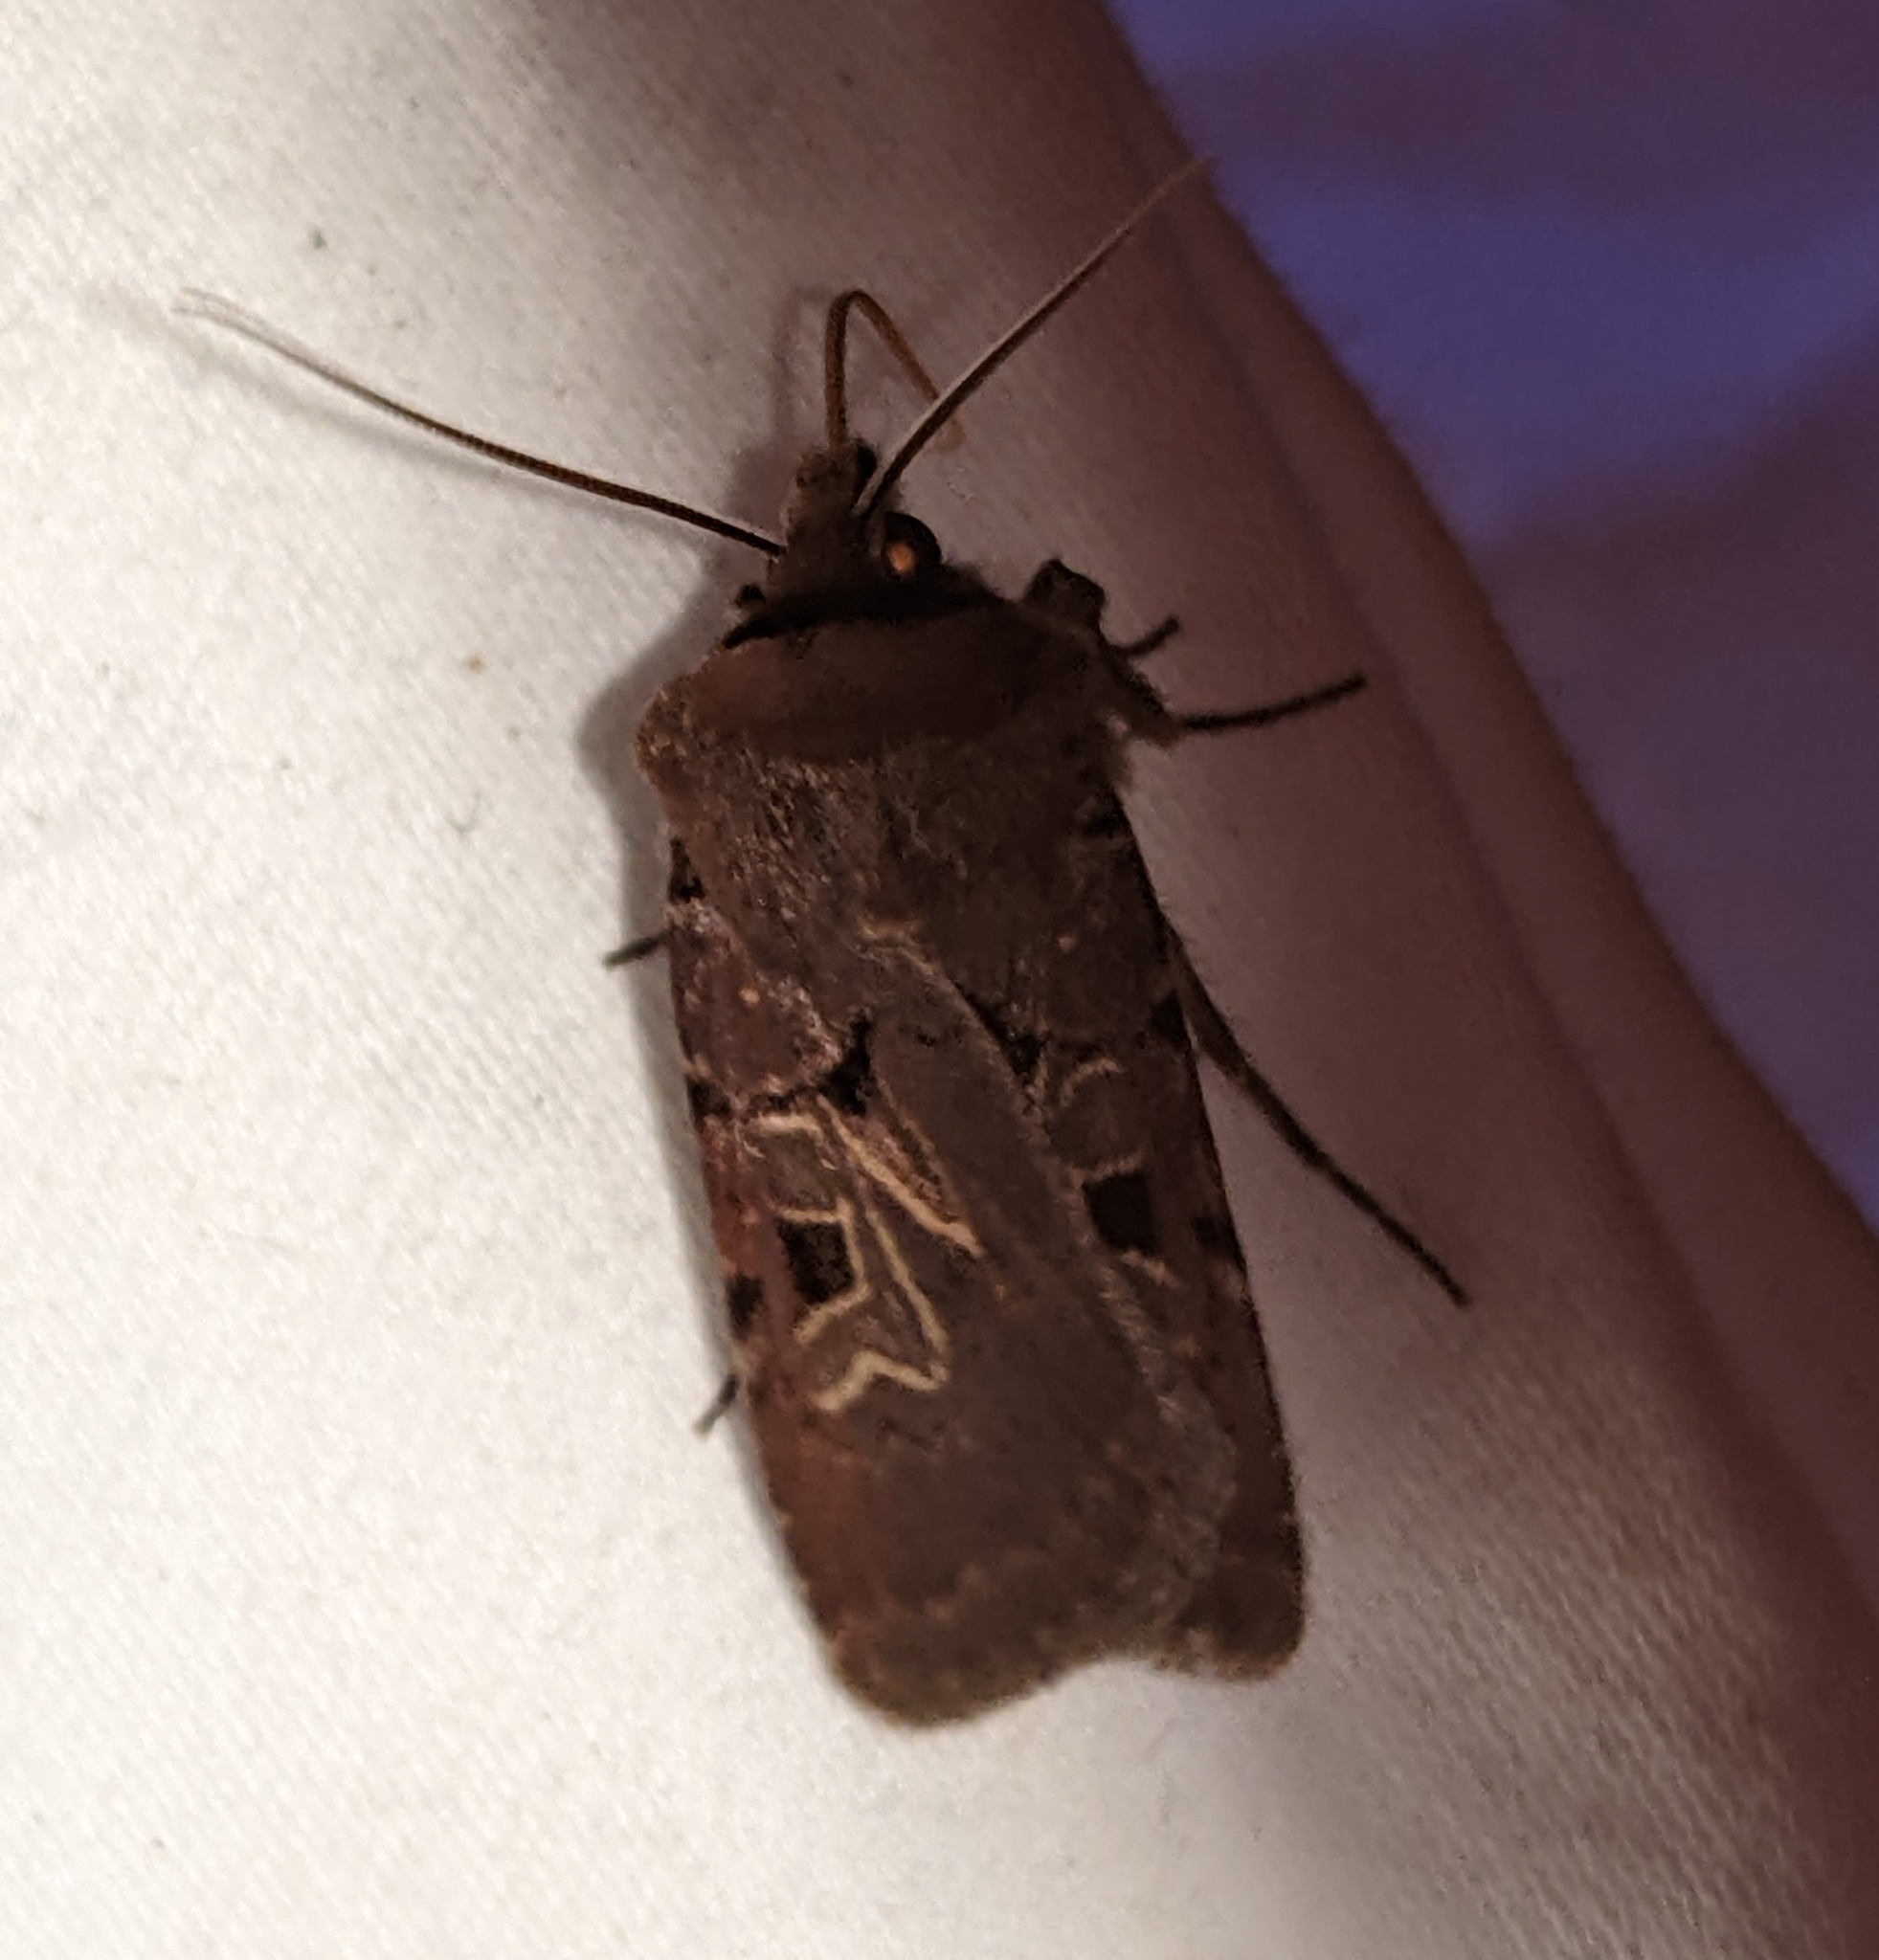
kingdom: Animalia
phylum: Arthropoda
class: Insecta
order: Lepidoptera
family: Noctuidae
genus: Chersotis
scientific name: Chersotis juncta
